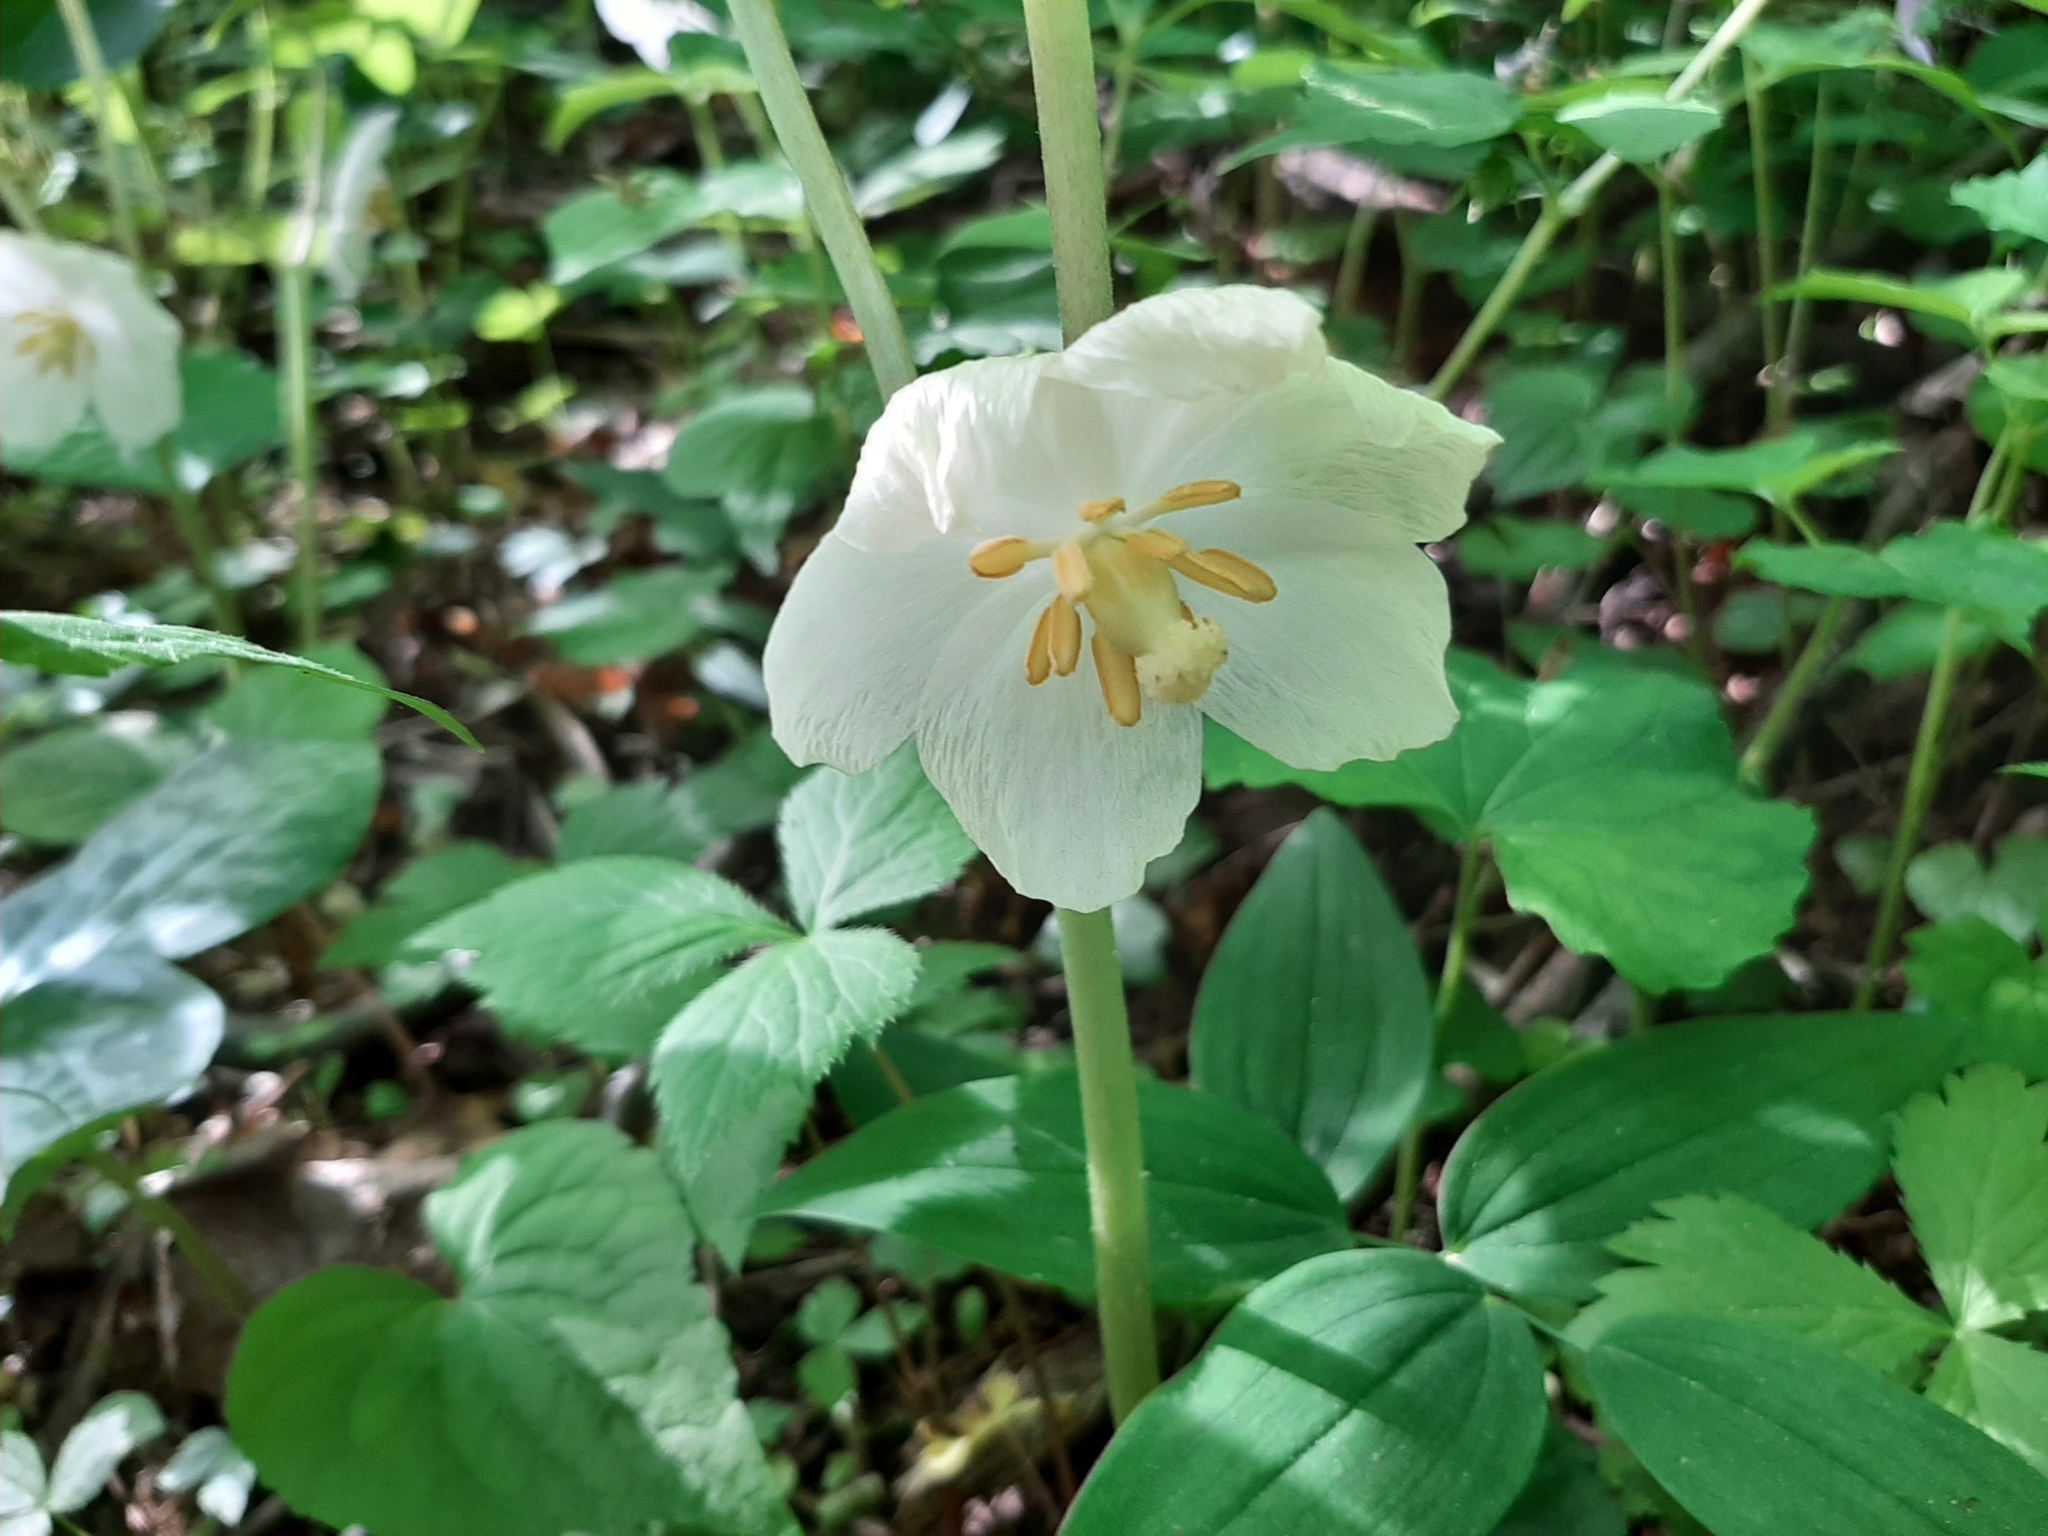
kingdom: Plantae
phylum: Tracheophyta
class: Magnoliopsida
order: Ranunculales
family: Berberidaceae
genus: Podophyllum
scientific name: Podophyllum peltatum
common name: Wild mandrake
